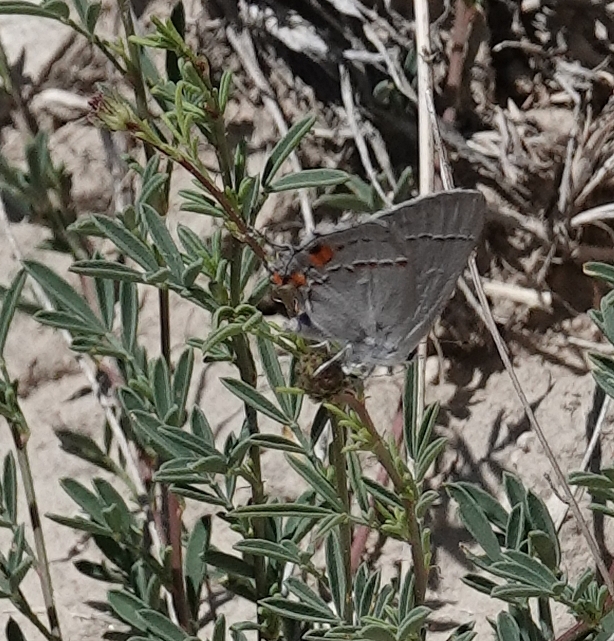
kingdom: Animalia
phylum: Arthropoda
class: Insecta
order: Lepidoptera
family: Lycaenidae
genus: Strymon
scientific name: Strymon melinus
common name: Gray hairstreak
